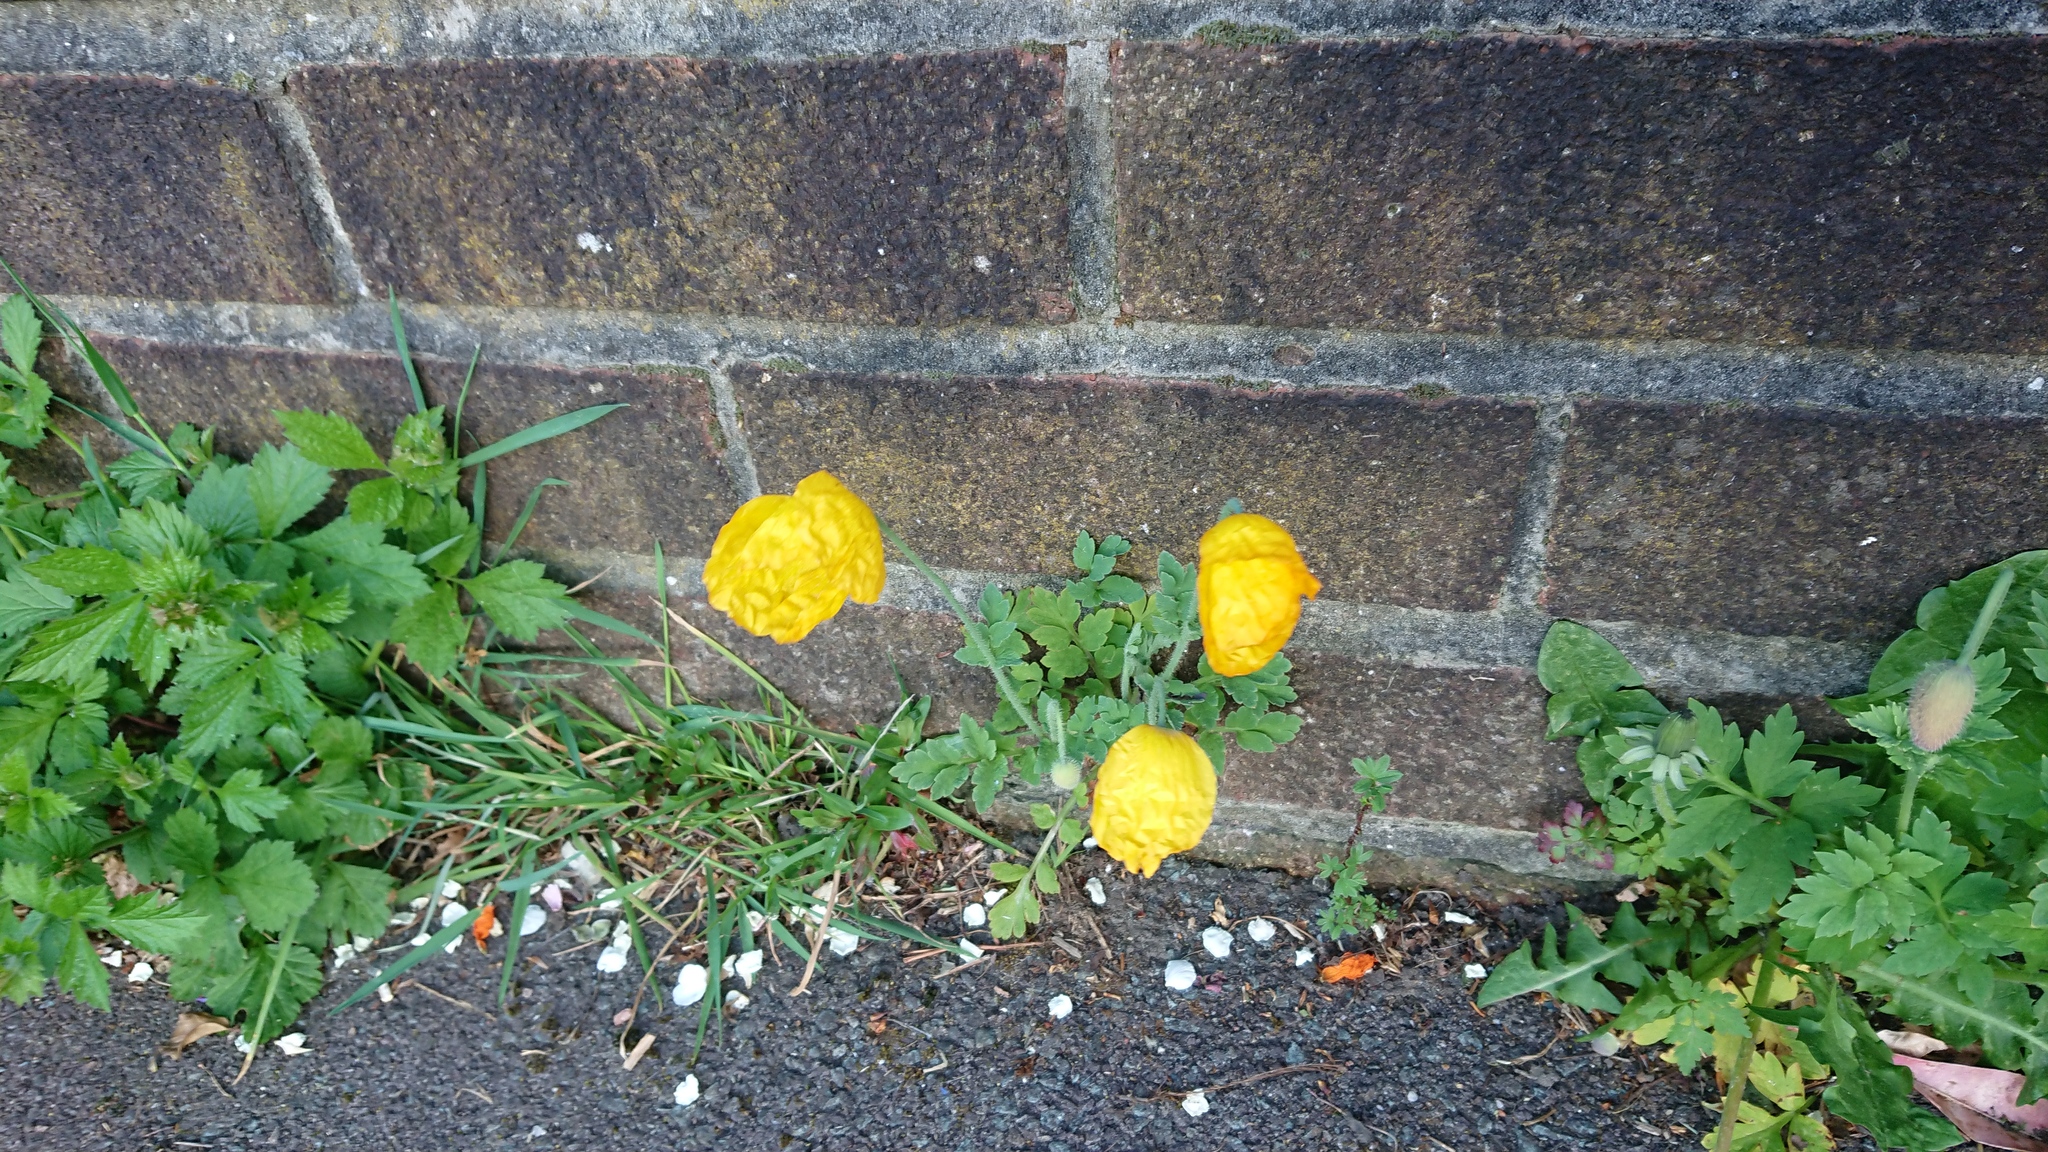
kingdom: Plantae
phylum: Tracheophyta
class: Magnoliopsida
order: Ranunculales
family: Papaveraceae
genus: Papaver
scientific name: Papaver cambricum
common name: Poppy
